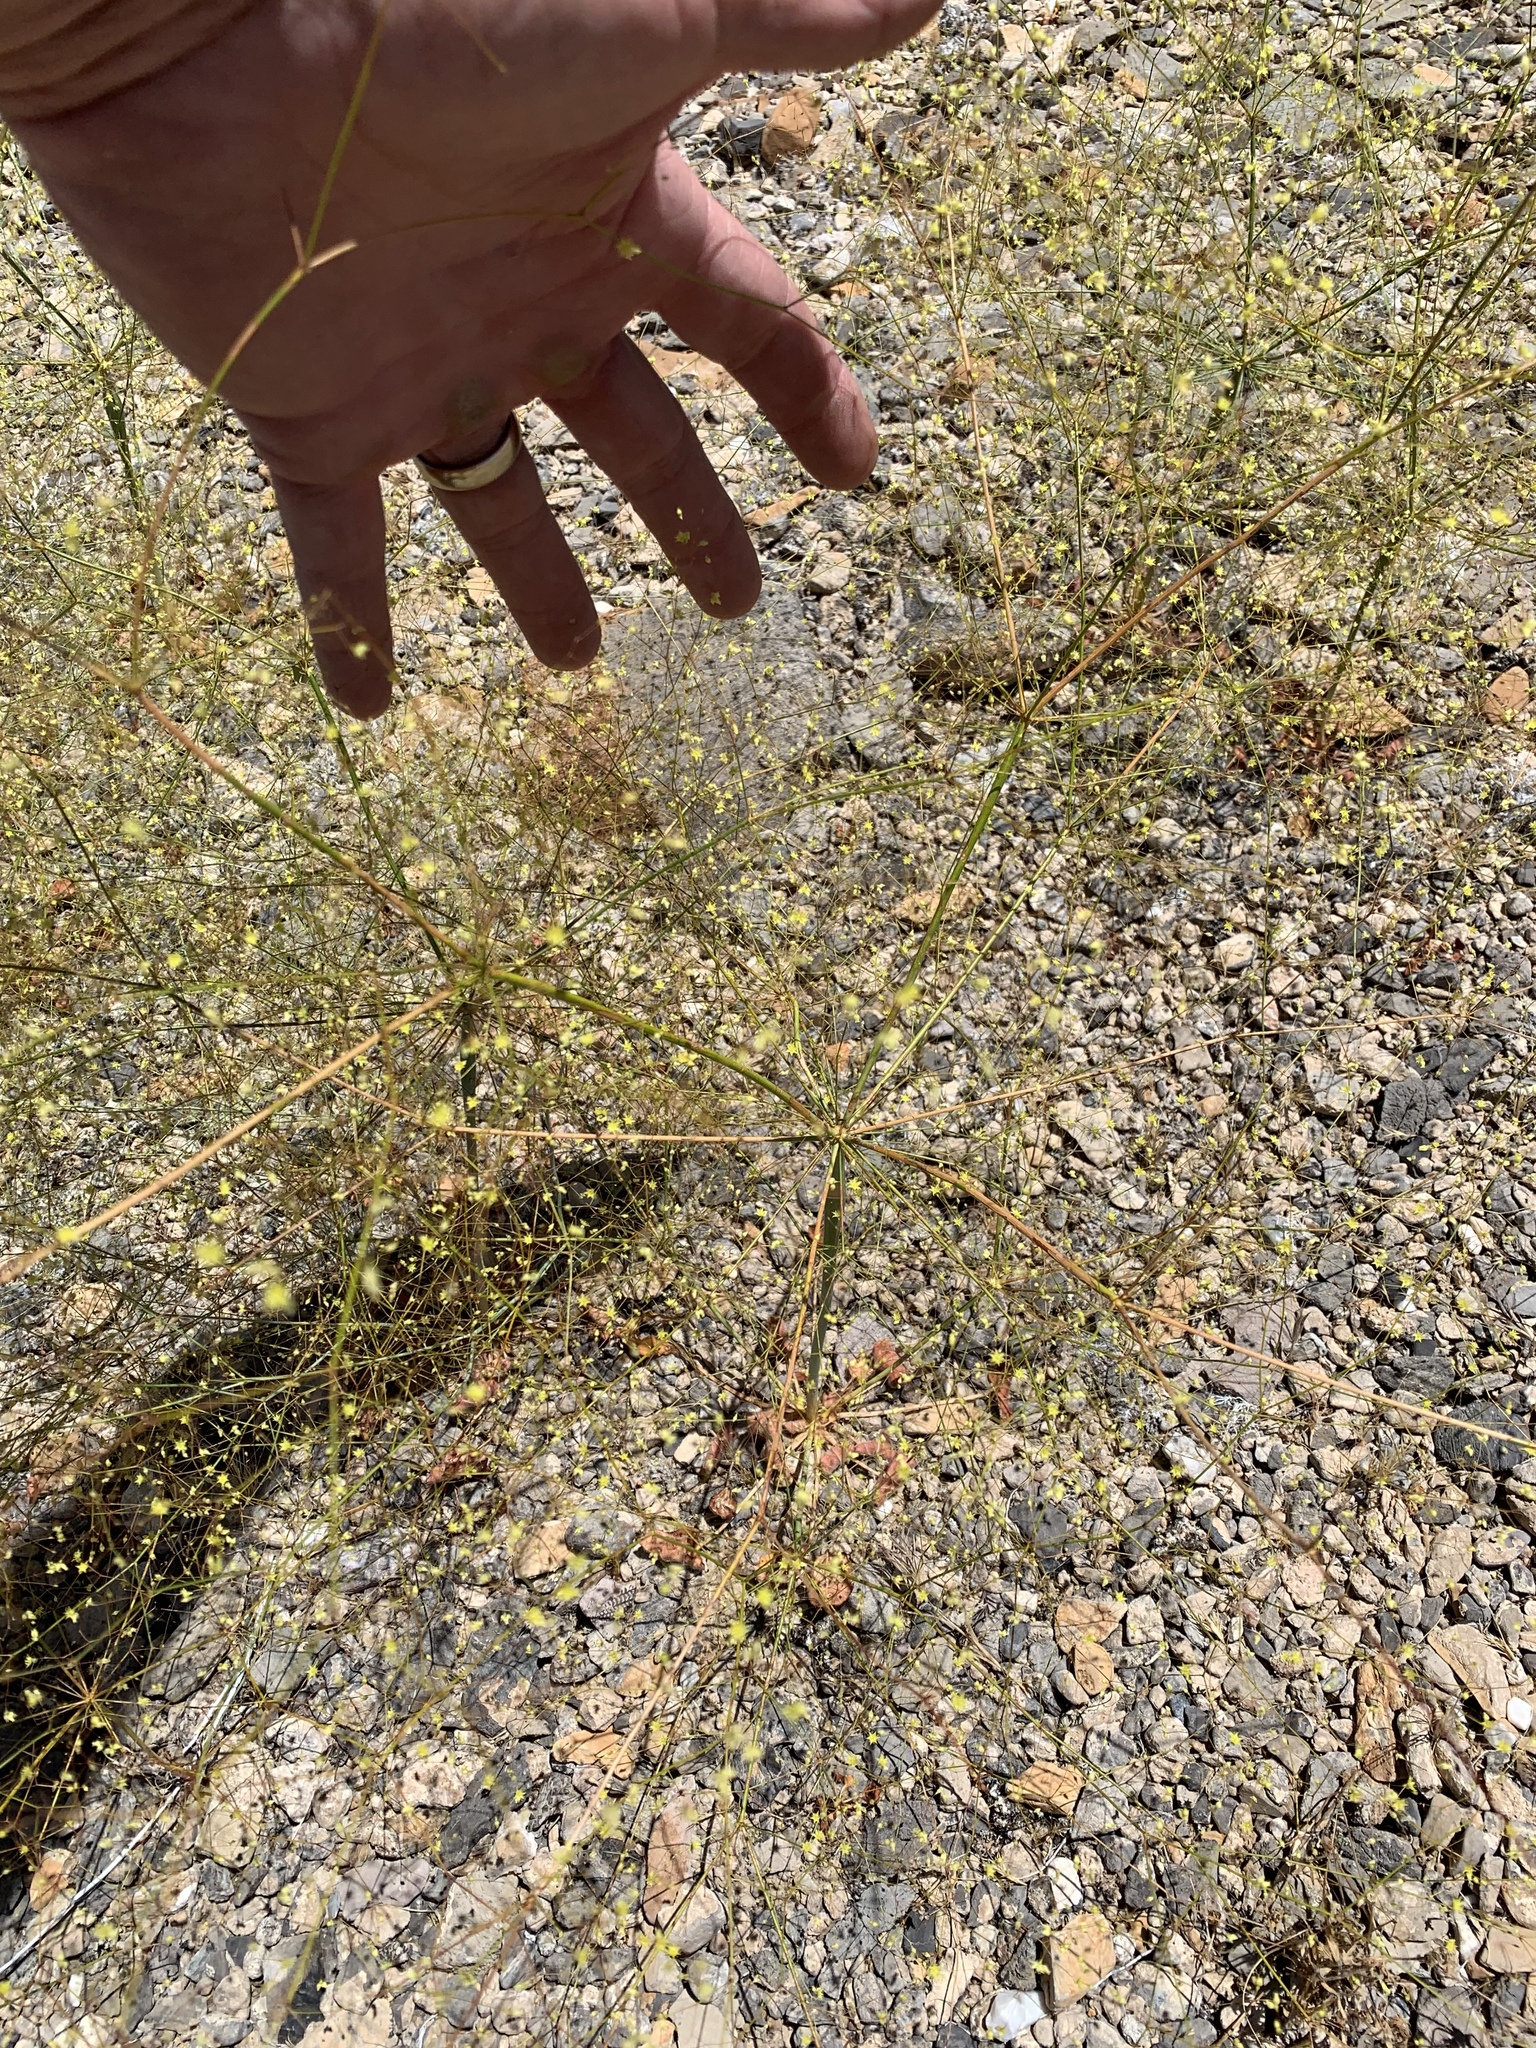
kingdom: Plantae
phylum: Tracheophyta
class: Magnoliopsida
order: Caryophyllales
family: Polygonaceae
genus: Eriogonum
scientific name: Eriogonum trichopes
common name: Little desert trumpet
